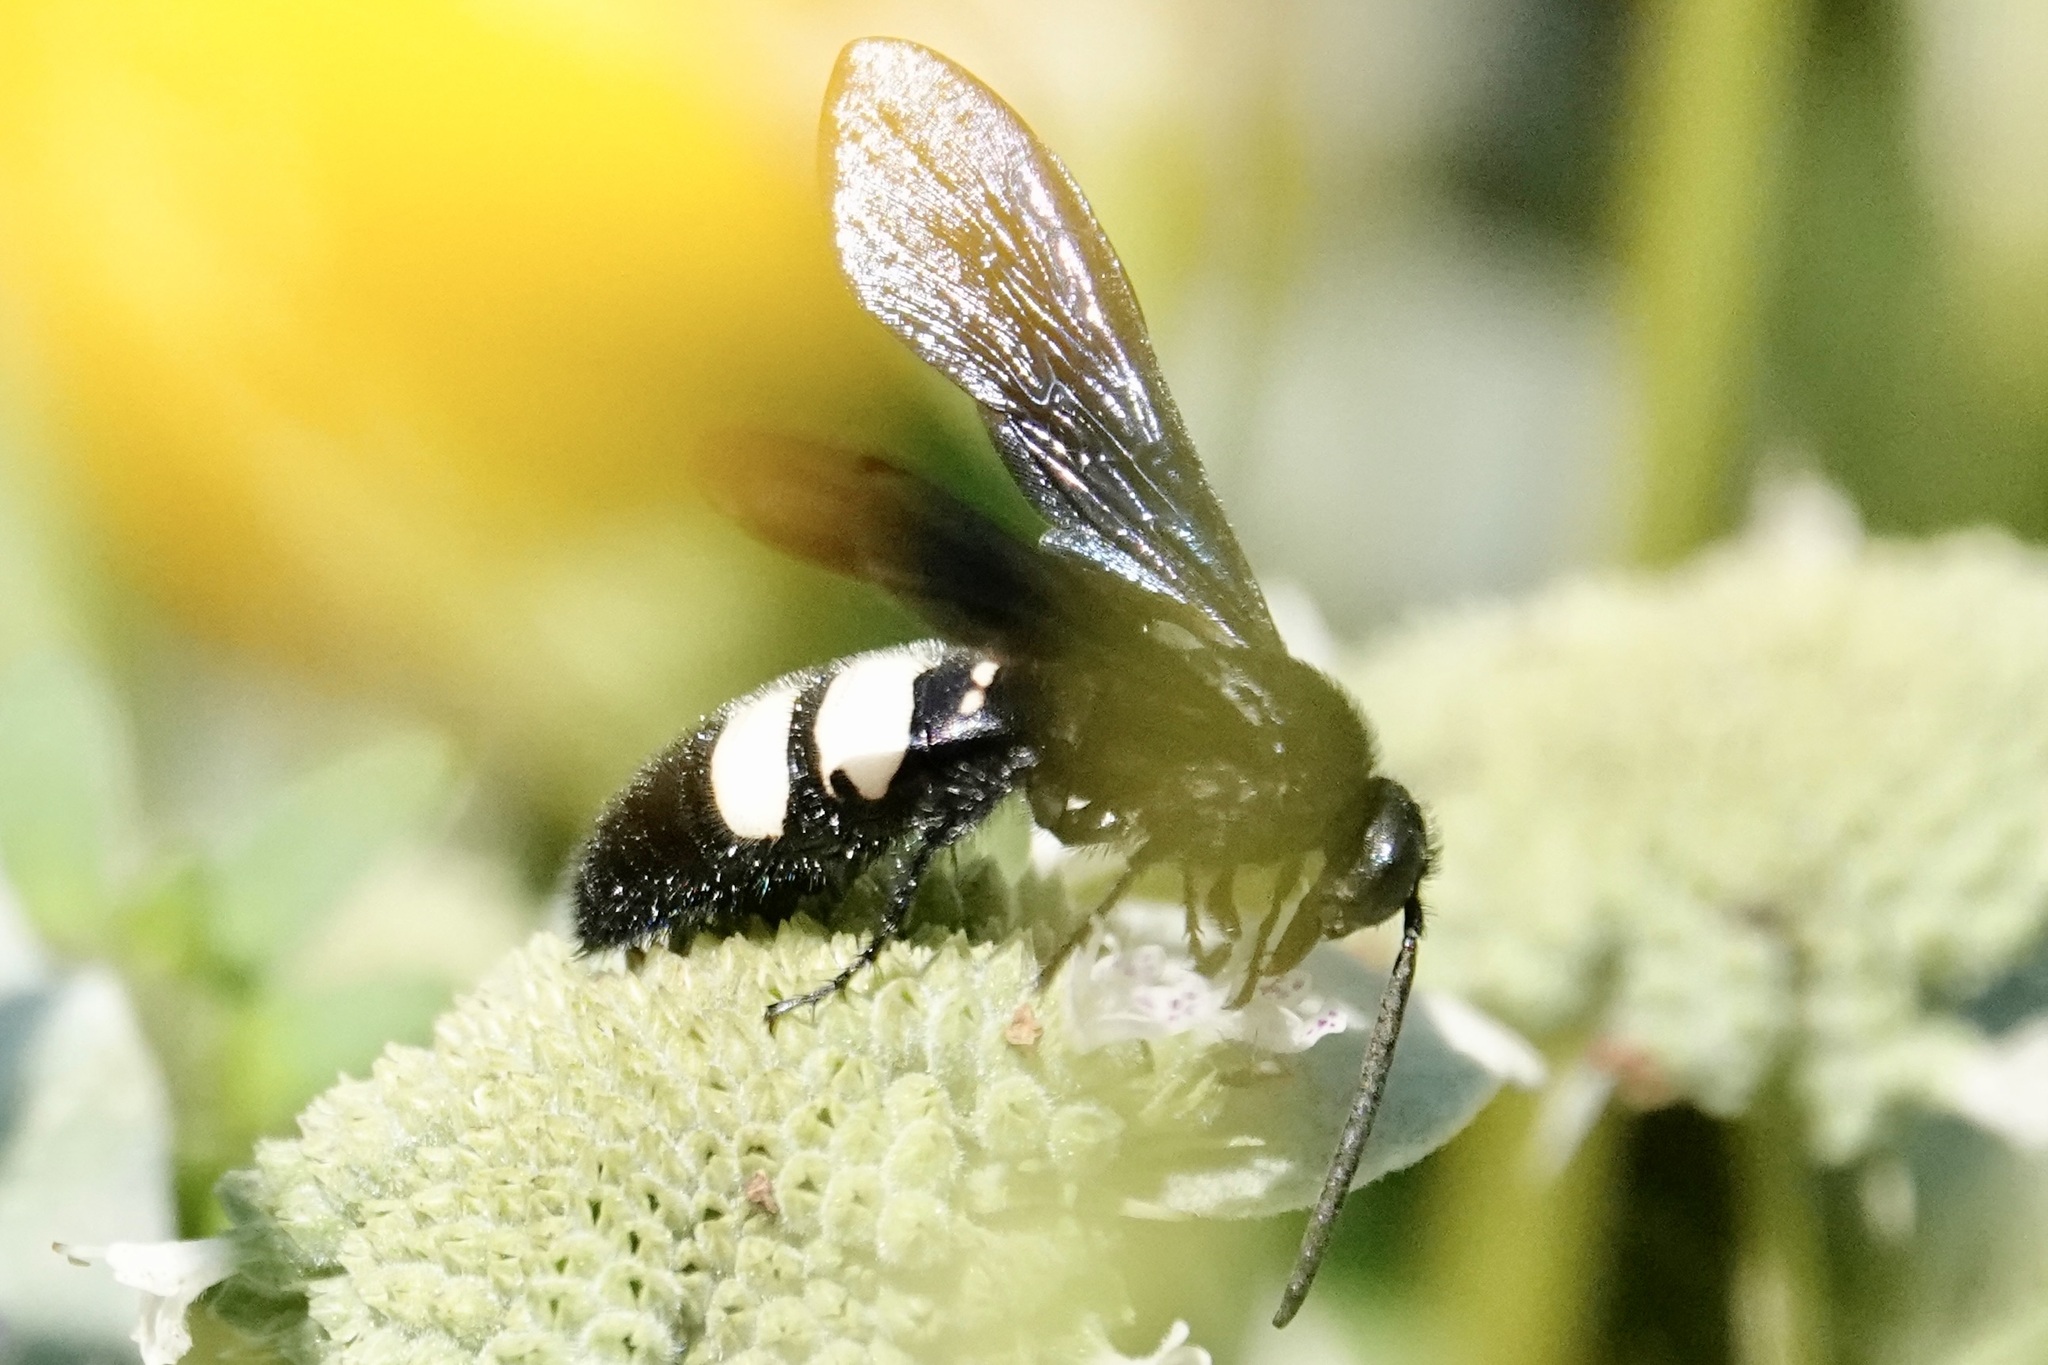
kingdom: Animalia
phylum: Arthropoda
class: Insecta
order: Hymenoptera
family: Scoliidae
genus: Scolia
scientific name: Scolia bicincta
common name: Double-banded scoliid wasp
